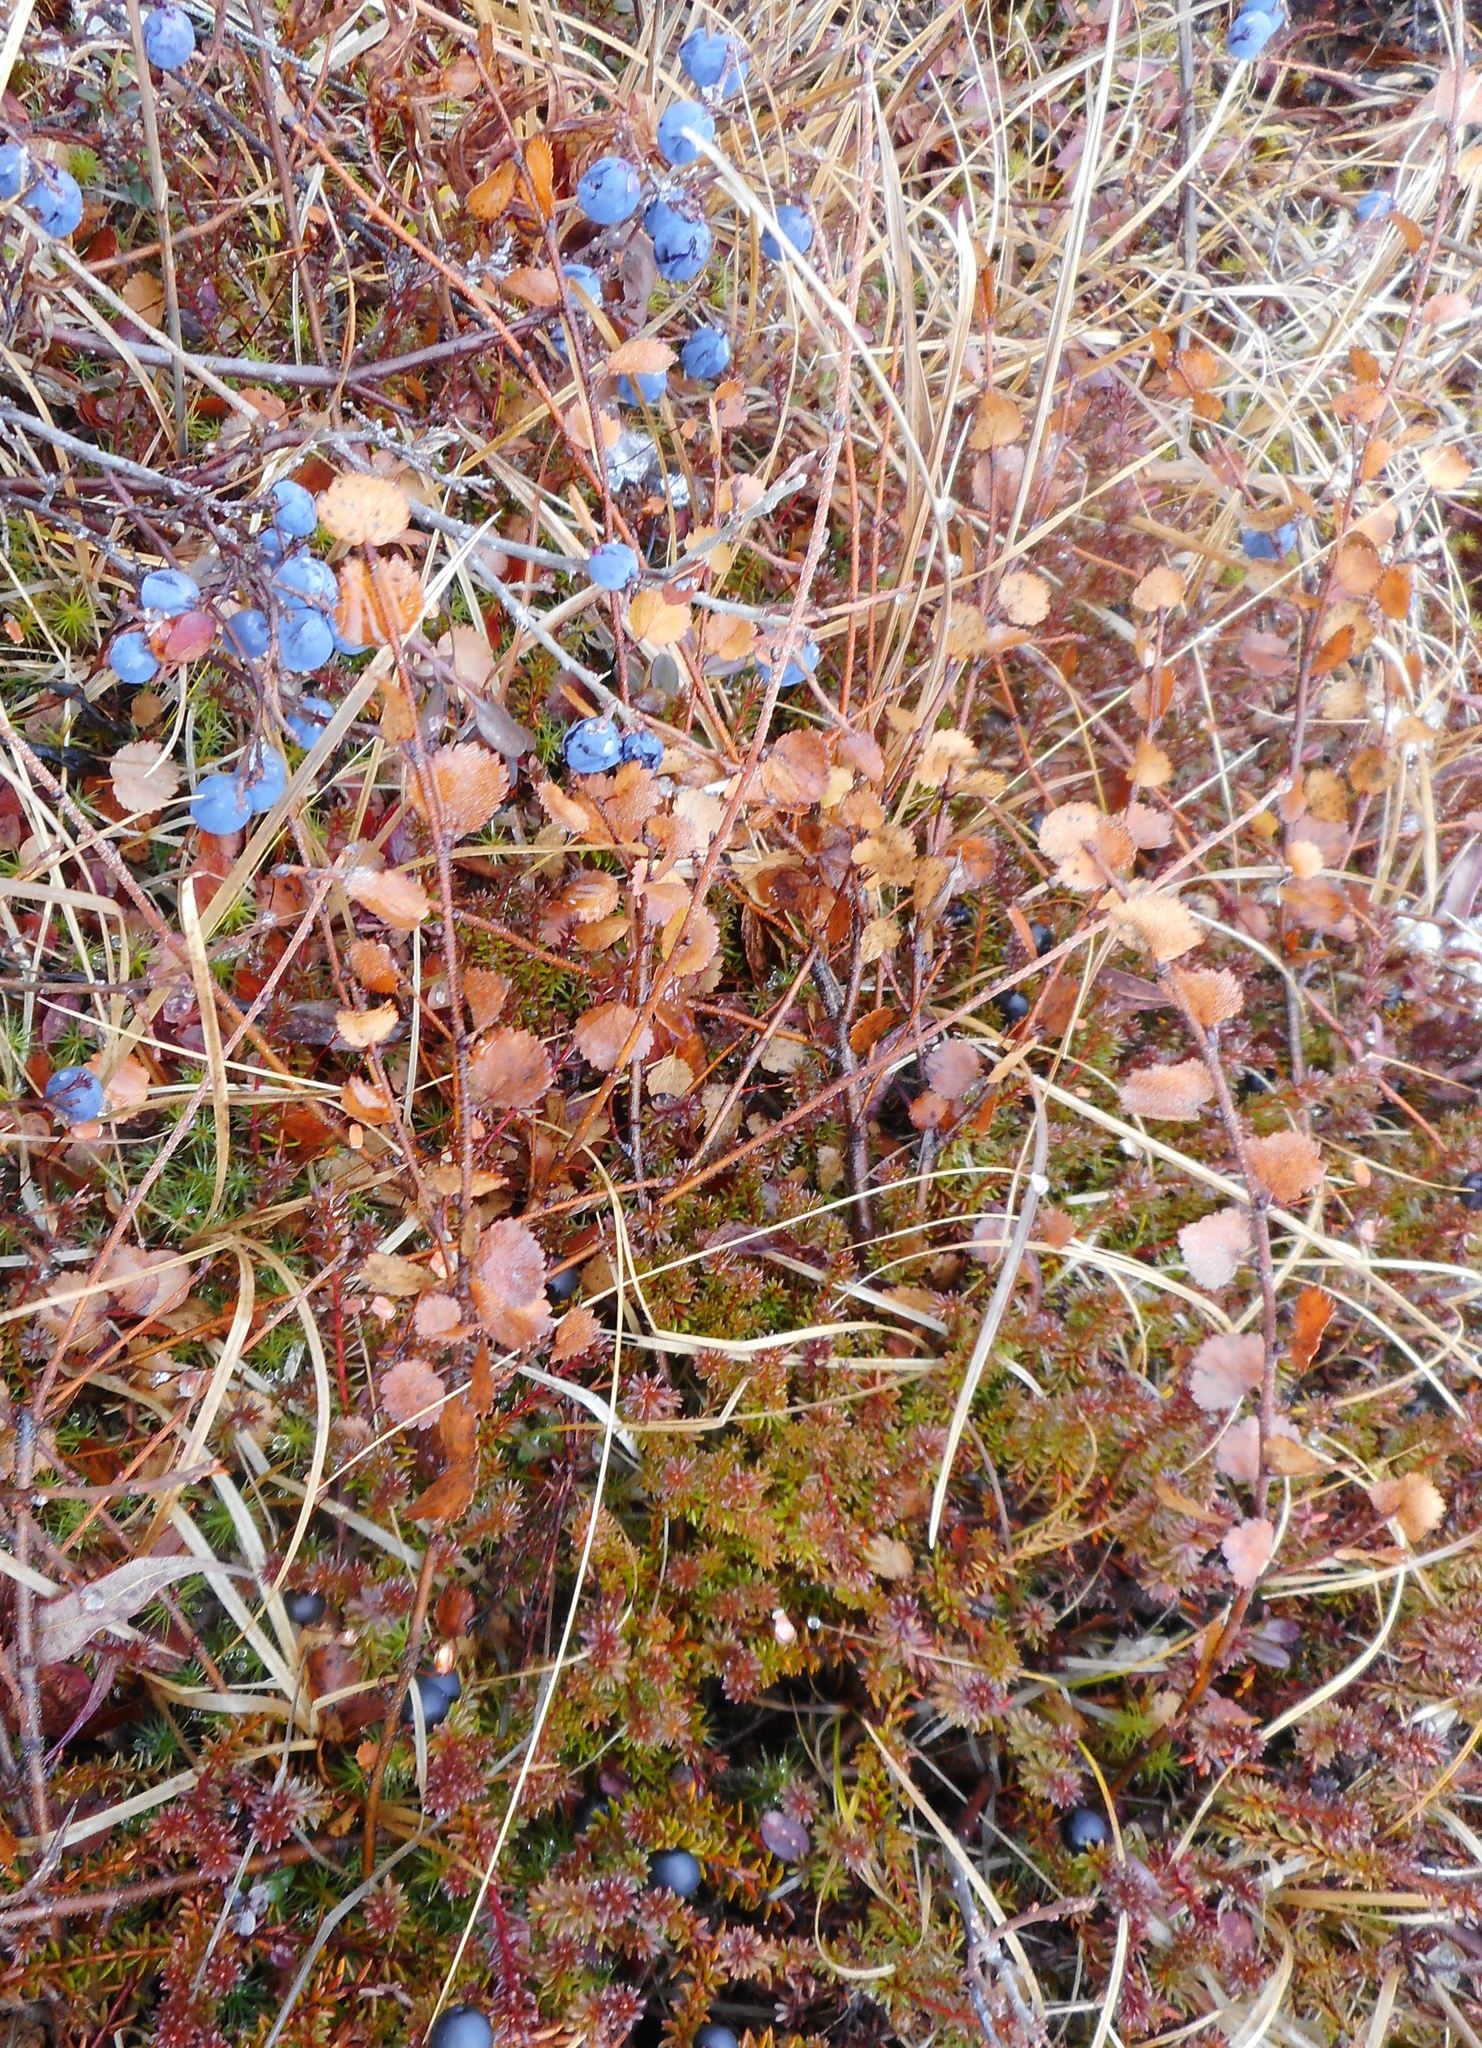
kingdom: Plantae
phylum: Tracheophyta
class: Magnoliopsida
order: Fagales
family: Betulaceae
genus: Betula
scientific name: Betula glandulosa
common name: Dwarf birch
